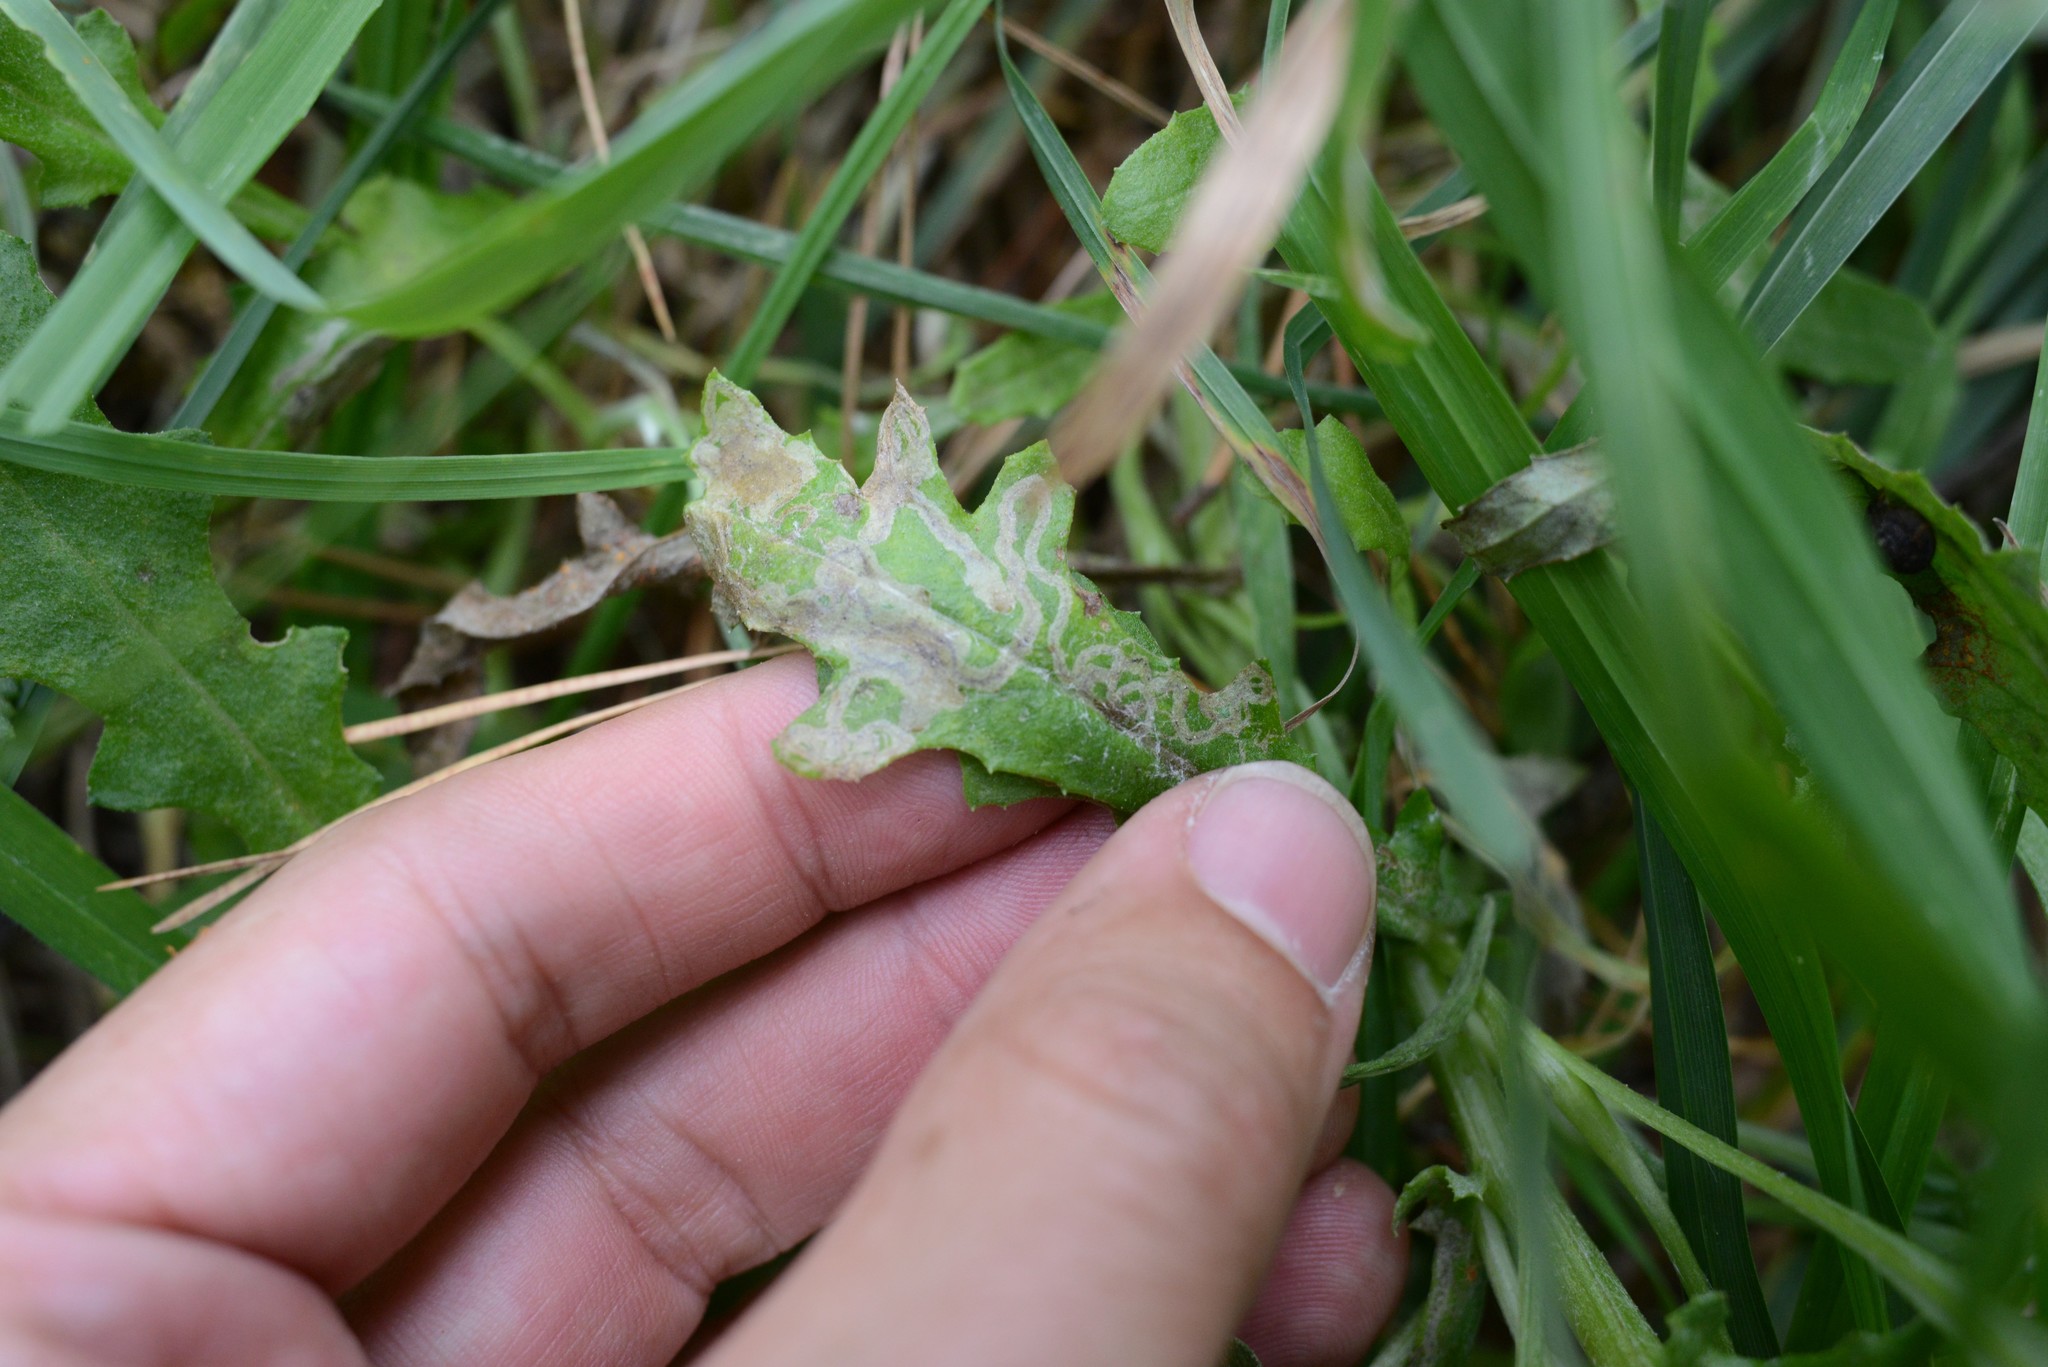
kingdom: Animalia
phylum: Arthropoda
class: Insecta
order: Lepidoptera
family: Nepticulidae
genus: Stigmella
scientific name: Stigmella ogygia
